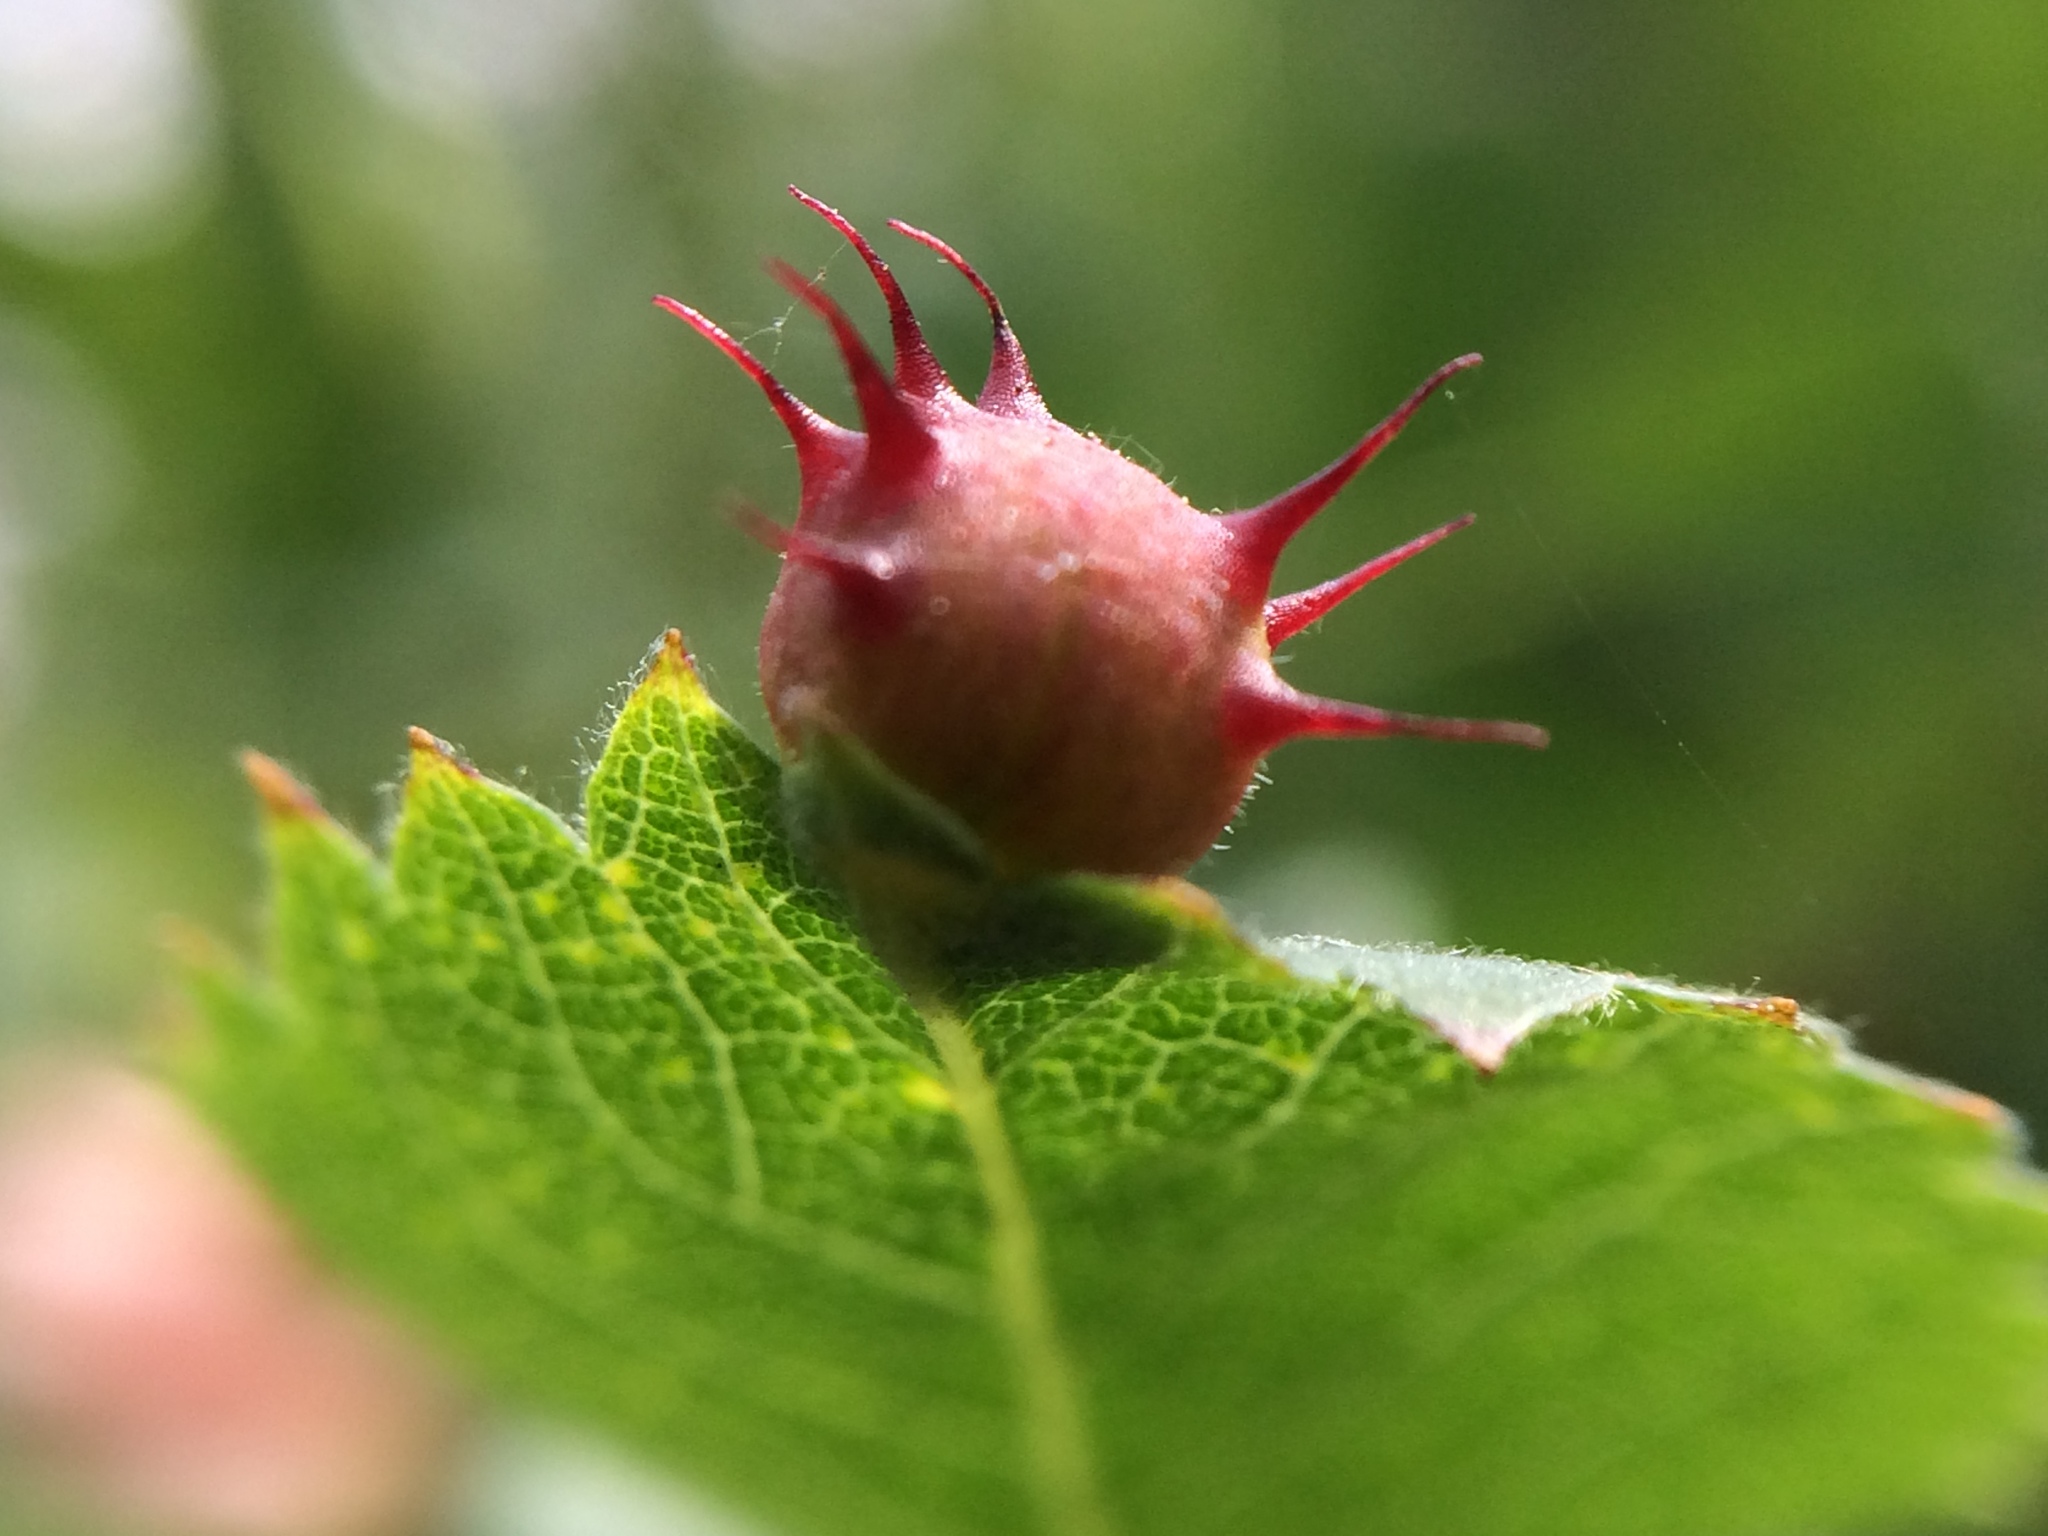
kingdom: Animalia
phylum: Arthropoda
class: Insecta
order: Hymenoptera
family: Cynipidae
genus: Diplolepis
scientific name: Diplolepis polita
